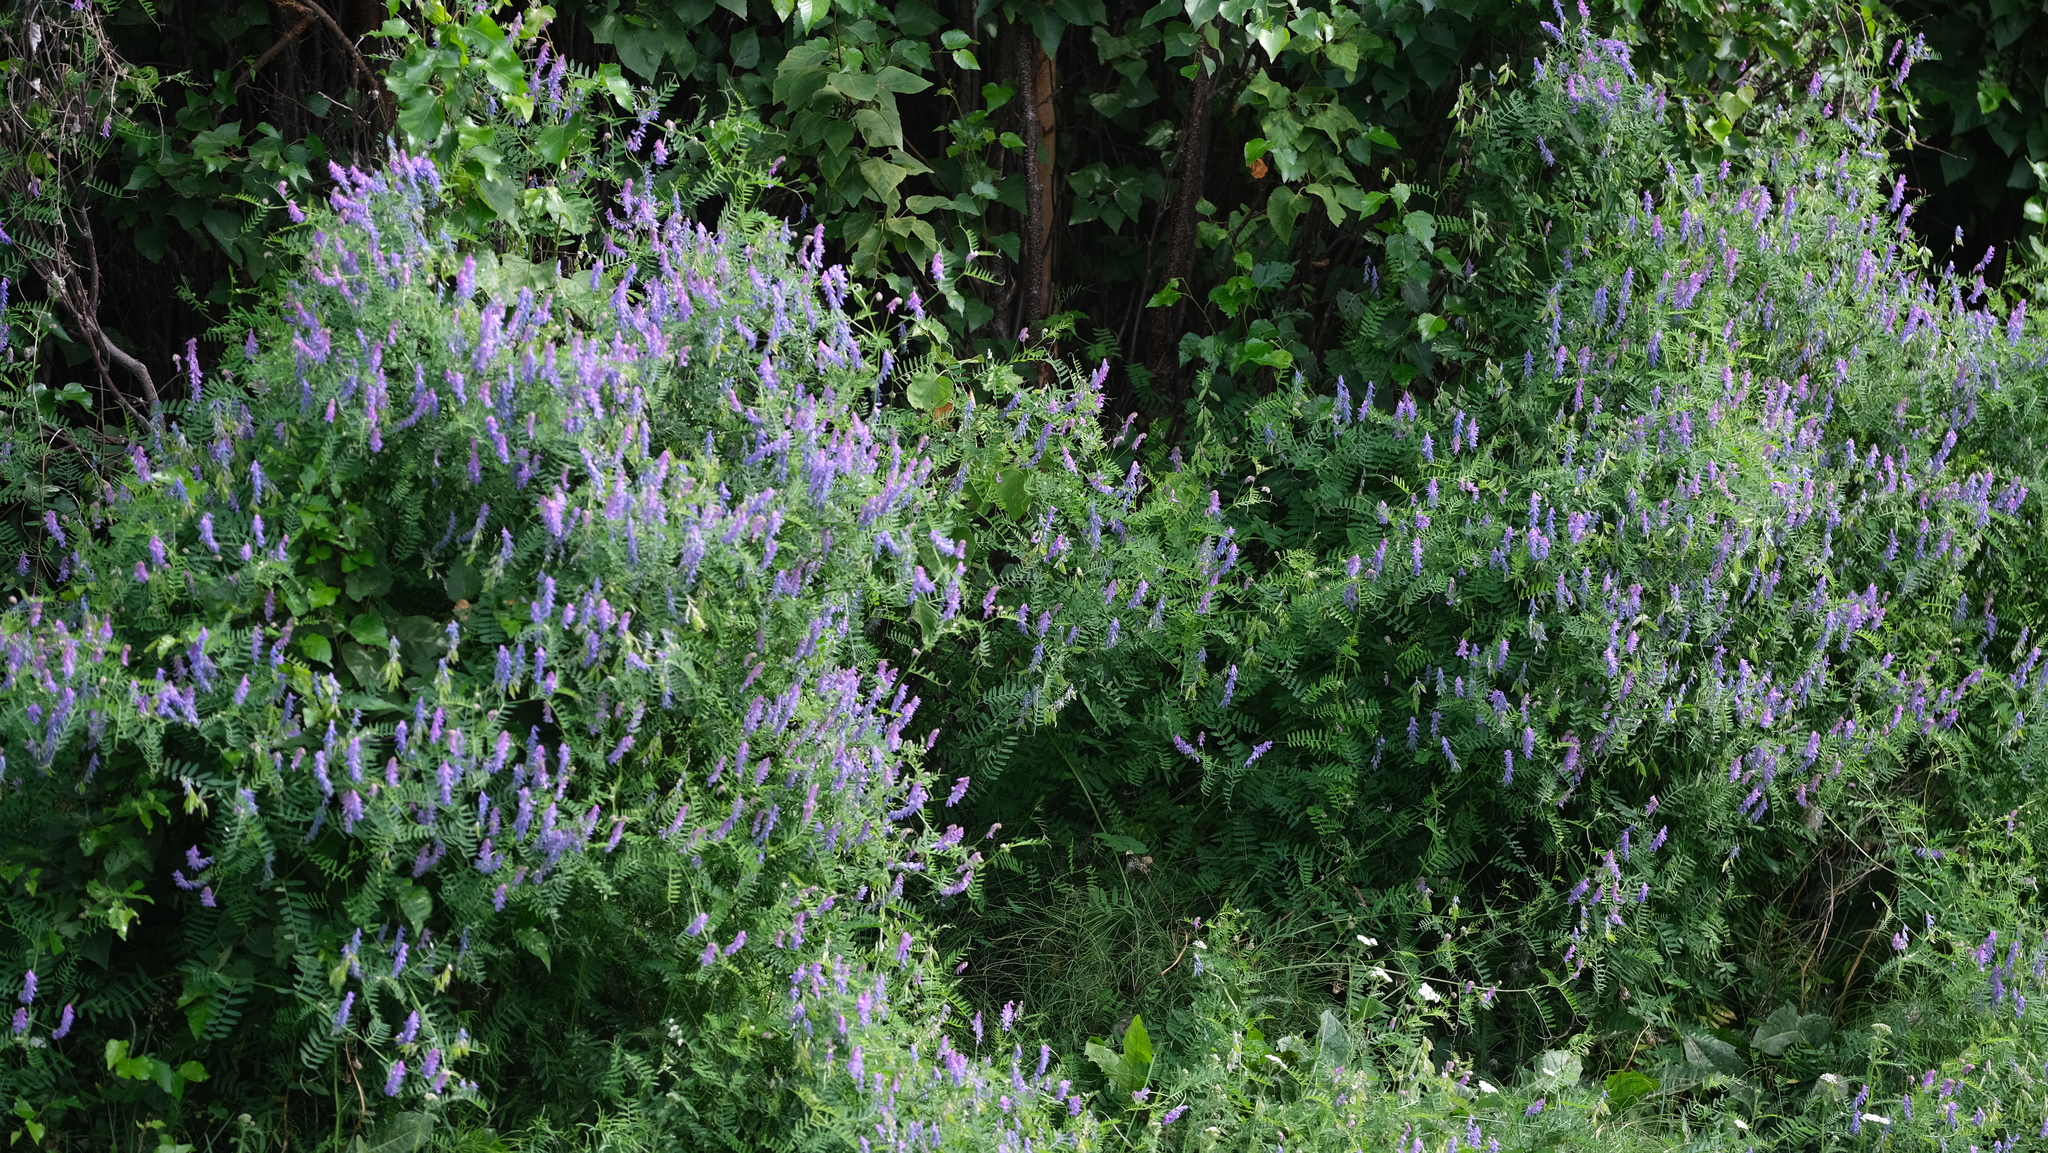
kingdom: Plantae
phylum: Tracheophyta
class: Magnoliopsida
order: Fabales
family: Fabaceae
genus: Vicia
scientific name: Vicia cracca
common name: Bird vetch
